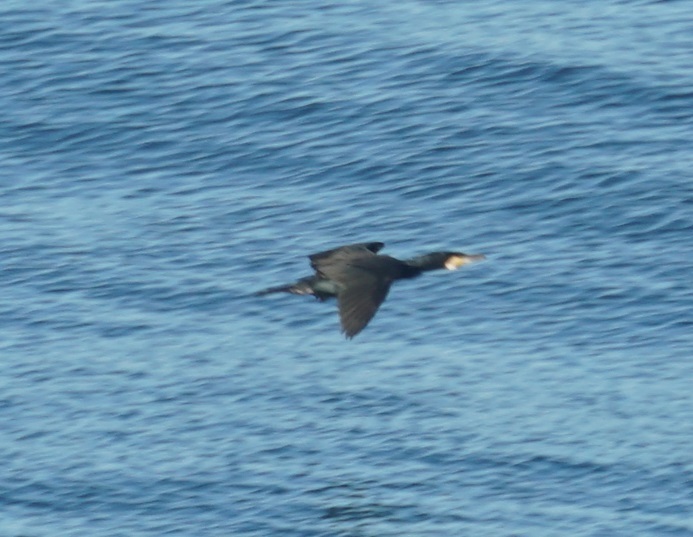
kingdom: Animalia
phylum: Chordata
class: Aves
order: Suliformes
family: Phalacrocoracidae
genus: Phalacrocorax
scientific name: Phalacrocorax carbo
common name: Great cormorant
